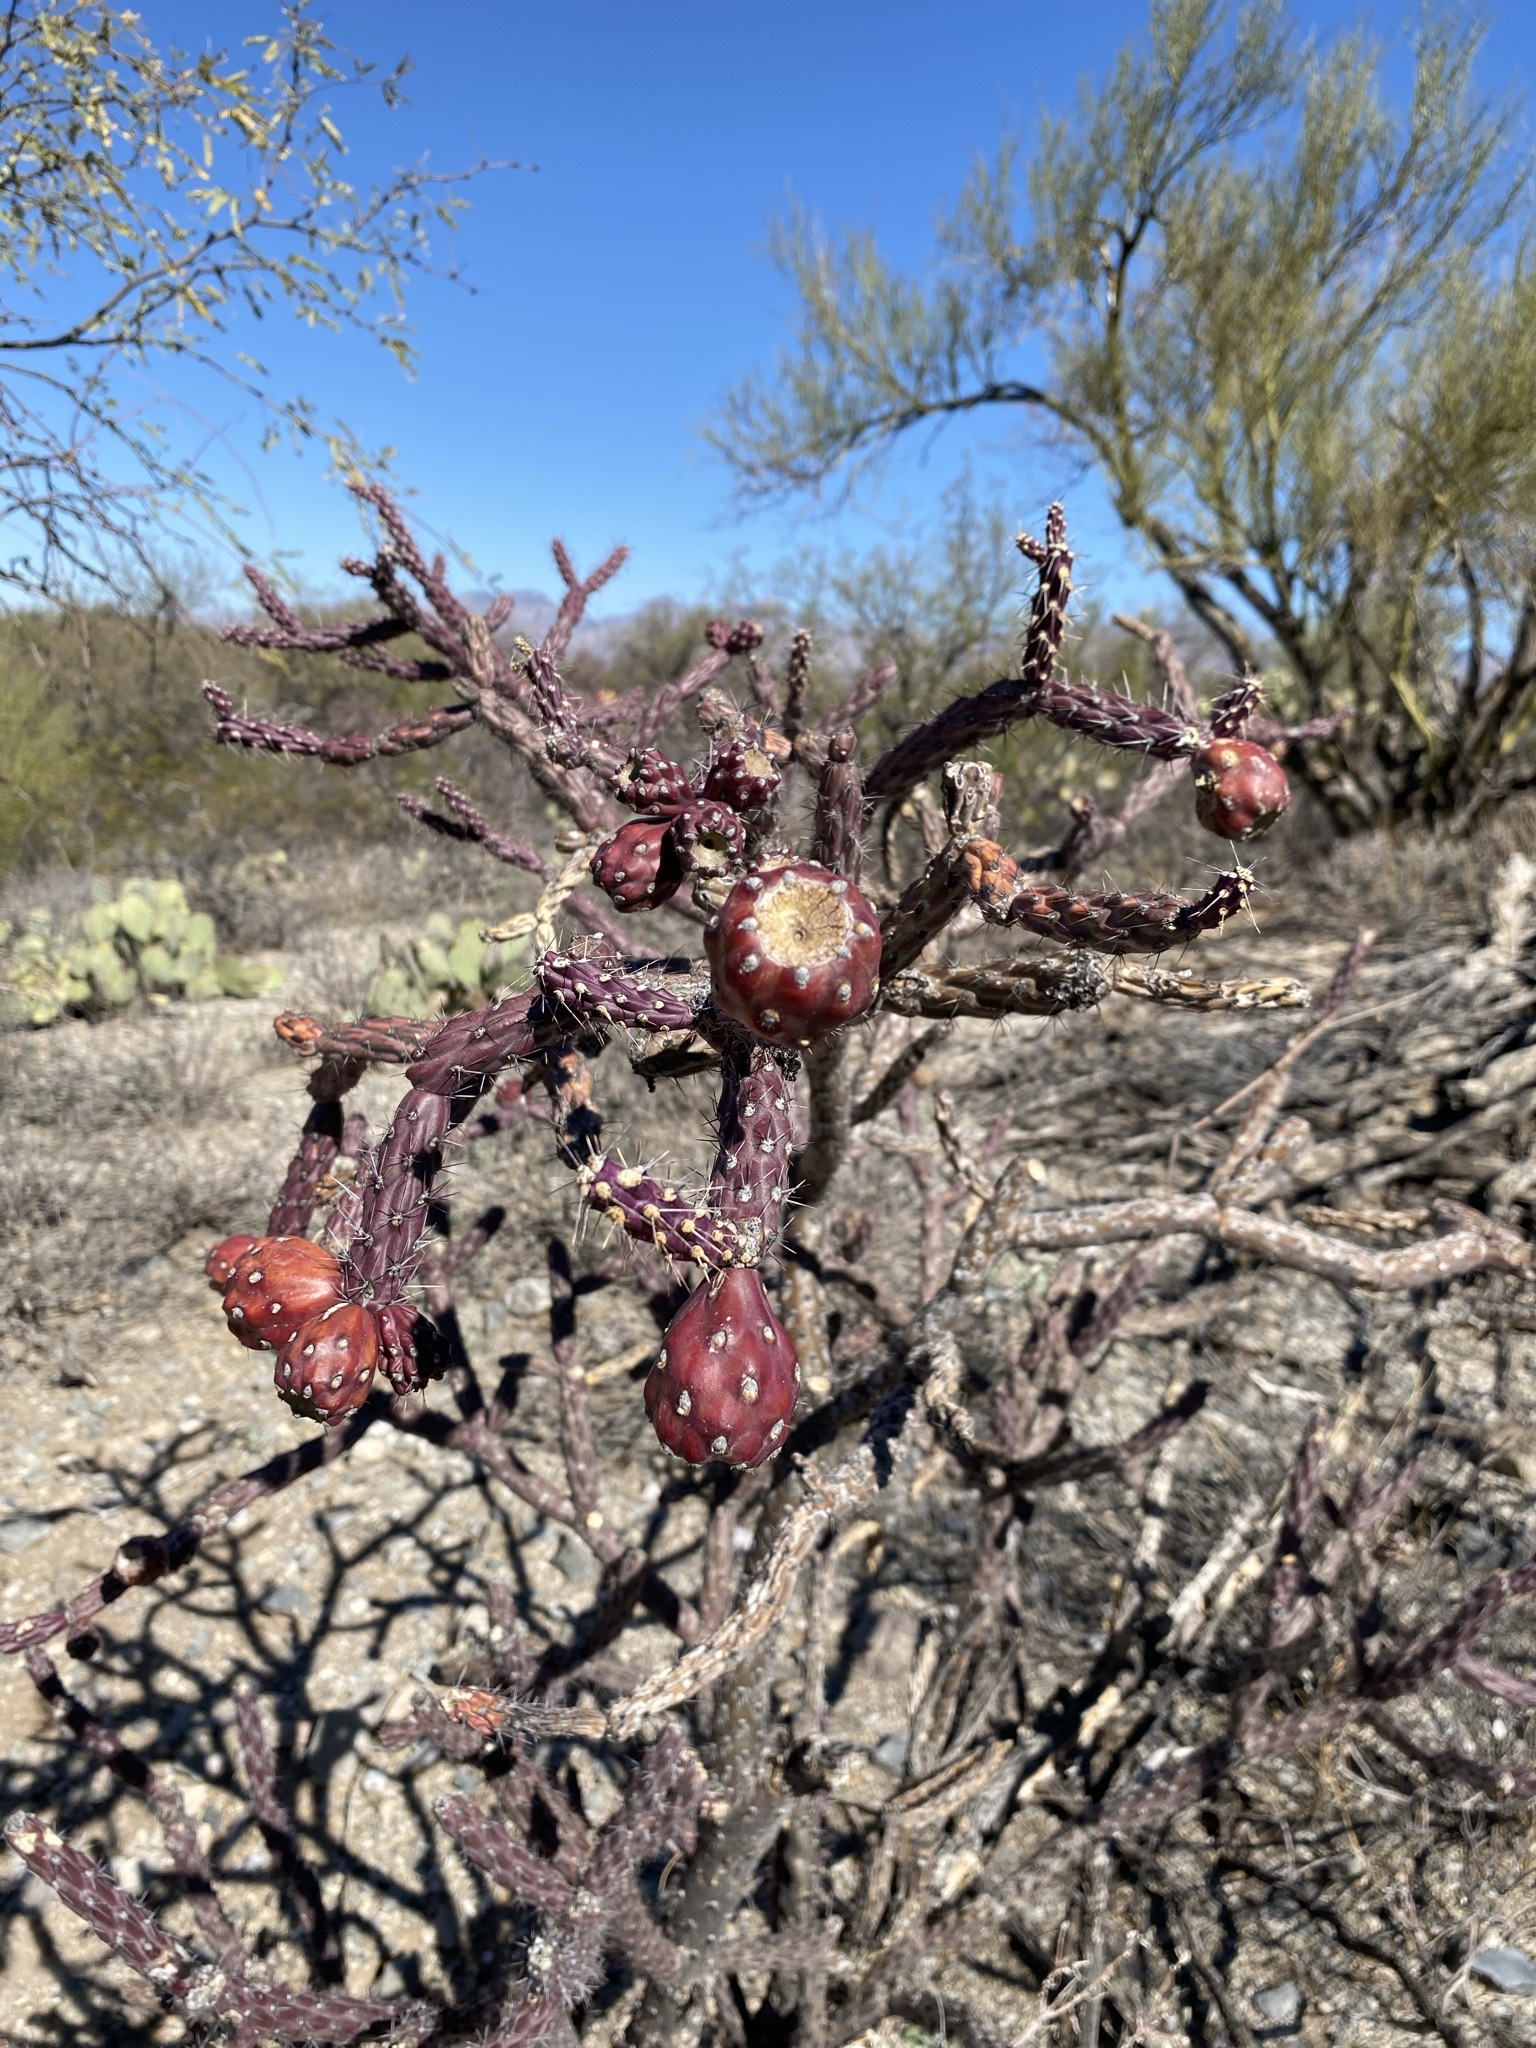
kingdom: Plantae
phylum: Tracheophyta
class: Magnoliopsida
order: Caryophyllales
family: Cactaceae
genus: Cylindropuntia
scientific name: Cylindropuntia thurberi
